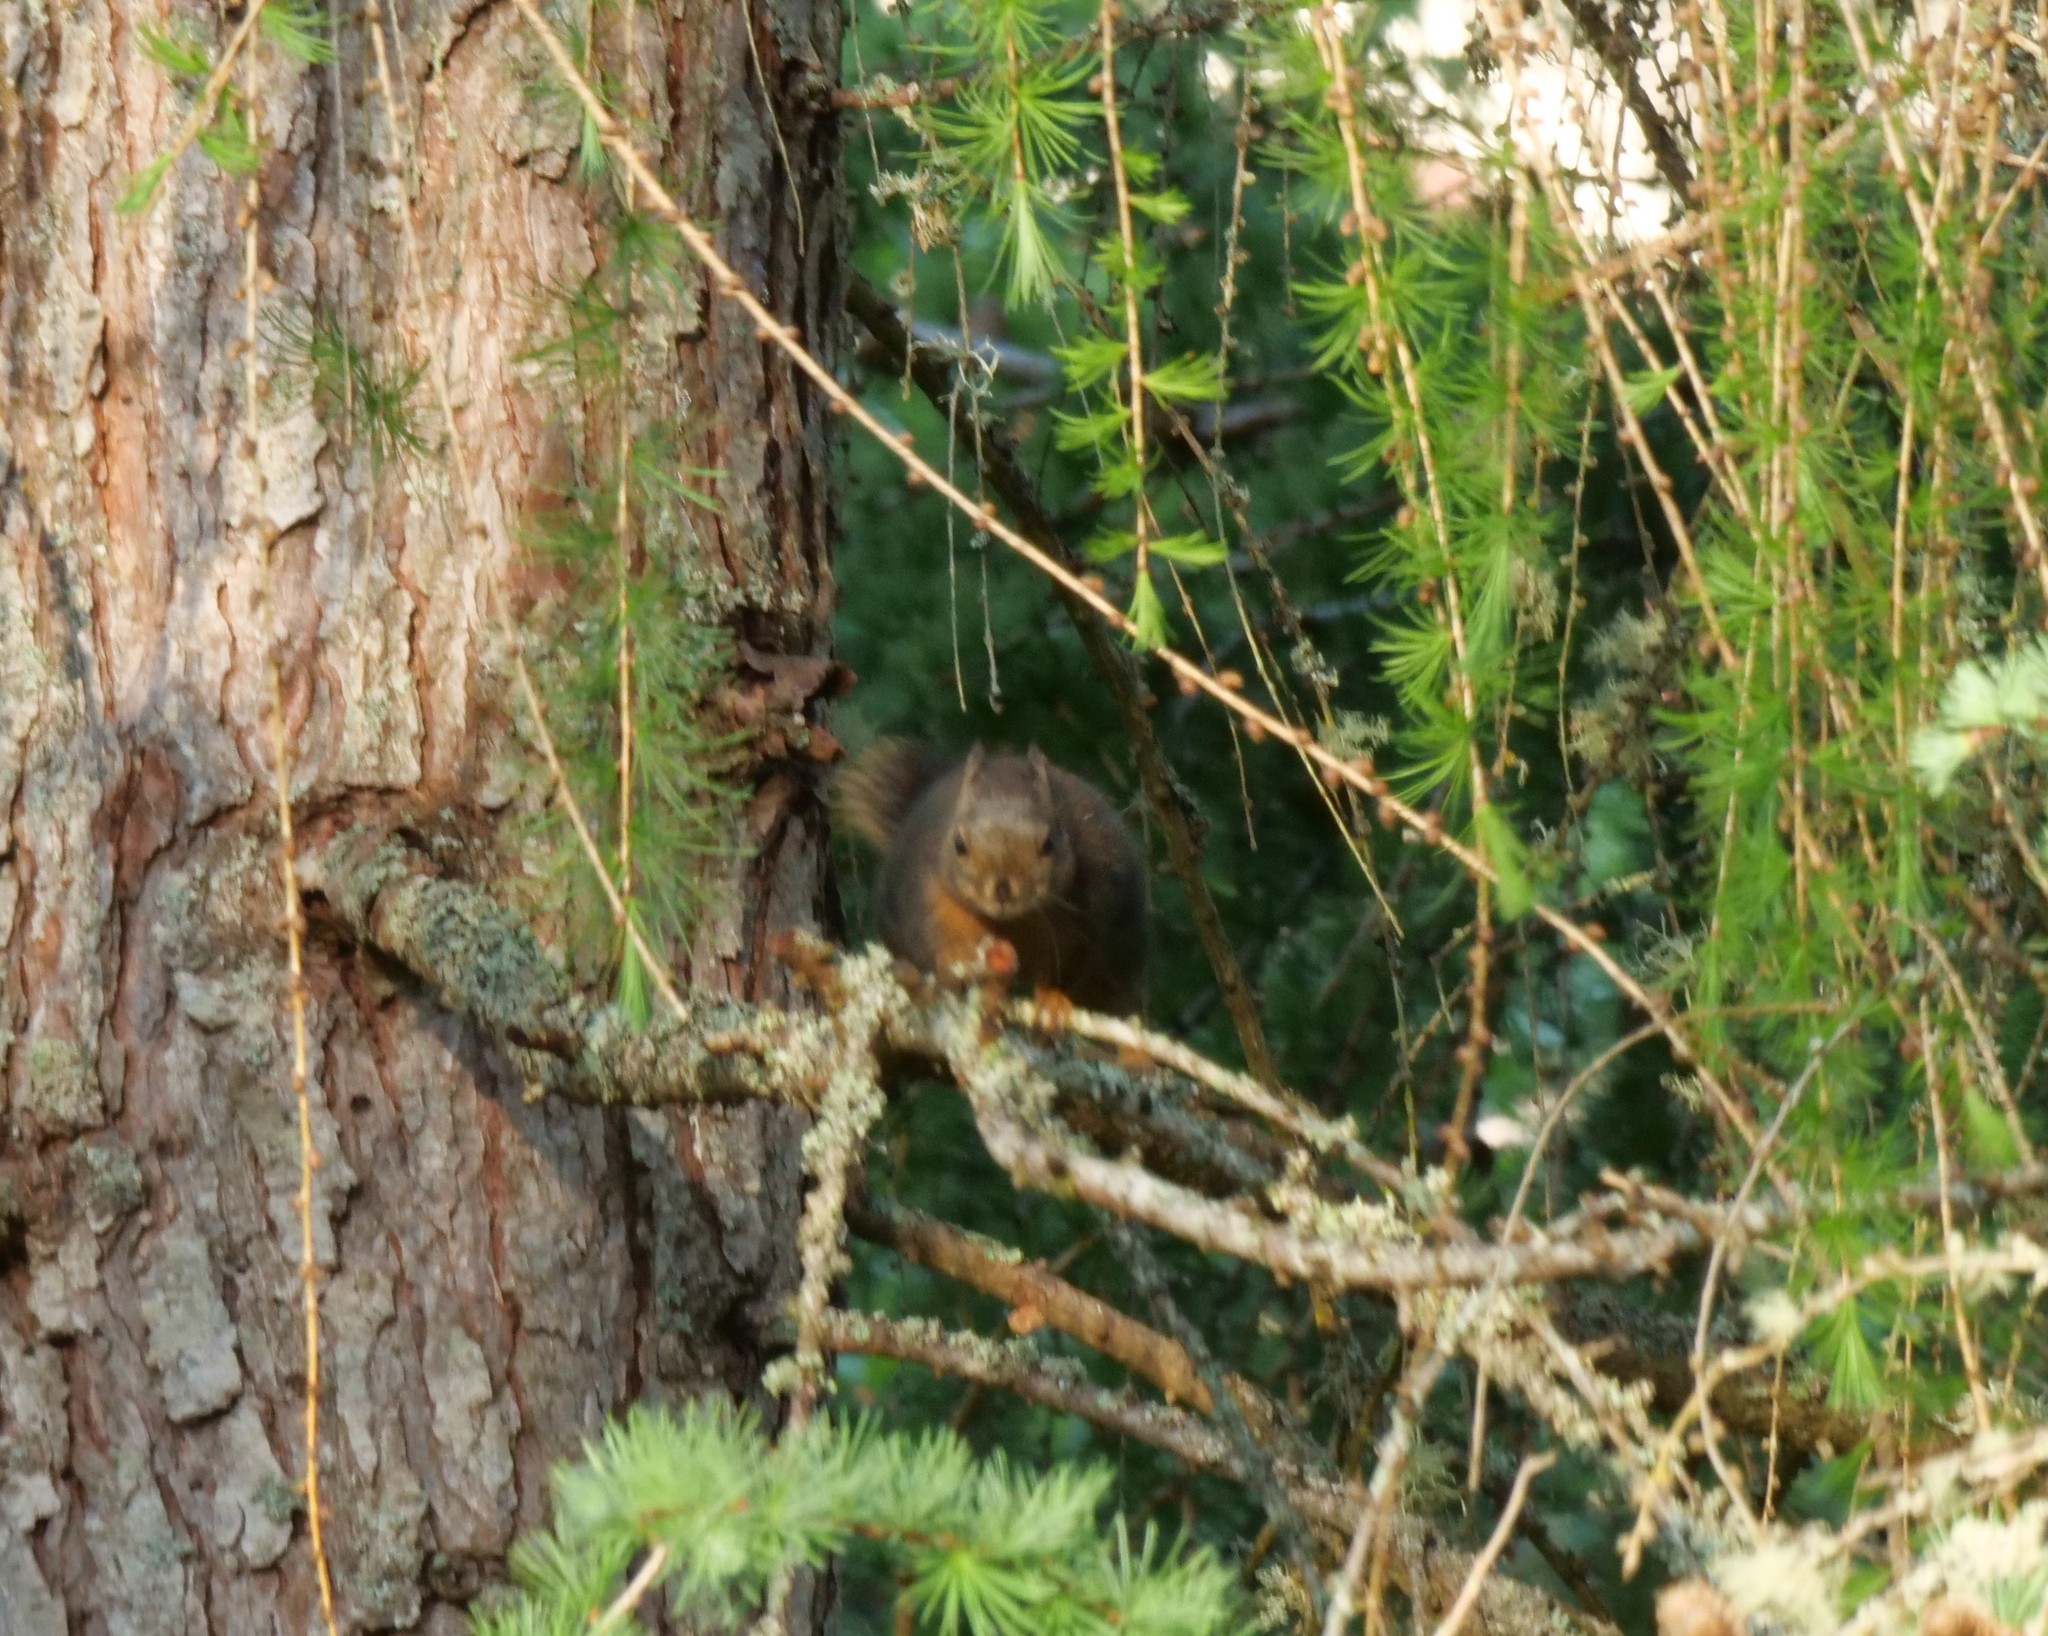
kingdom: Animalia
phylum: Chordata
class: Mammalia
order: Rodentia
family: Sciuridae
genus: Tamiasciurus
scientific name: Tamiasciurus douglasii
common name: Douglas's squirrel
